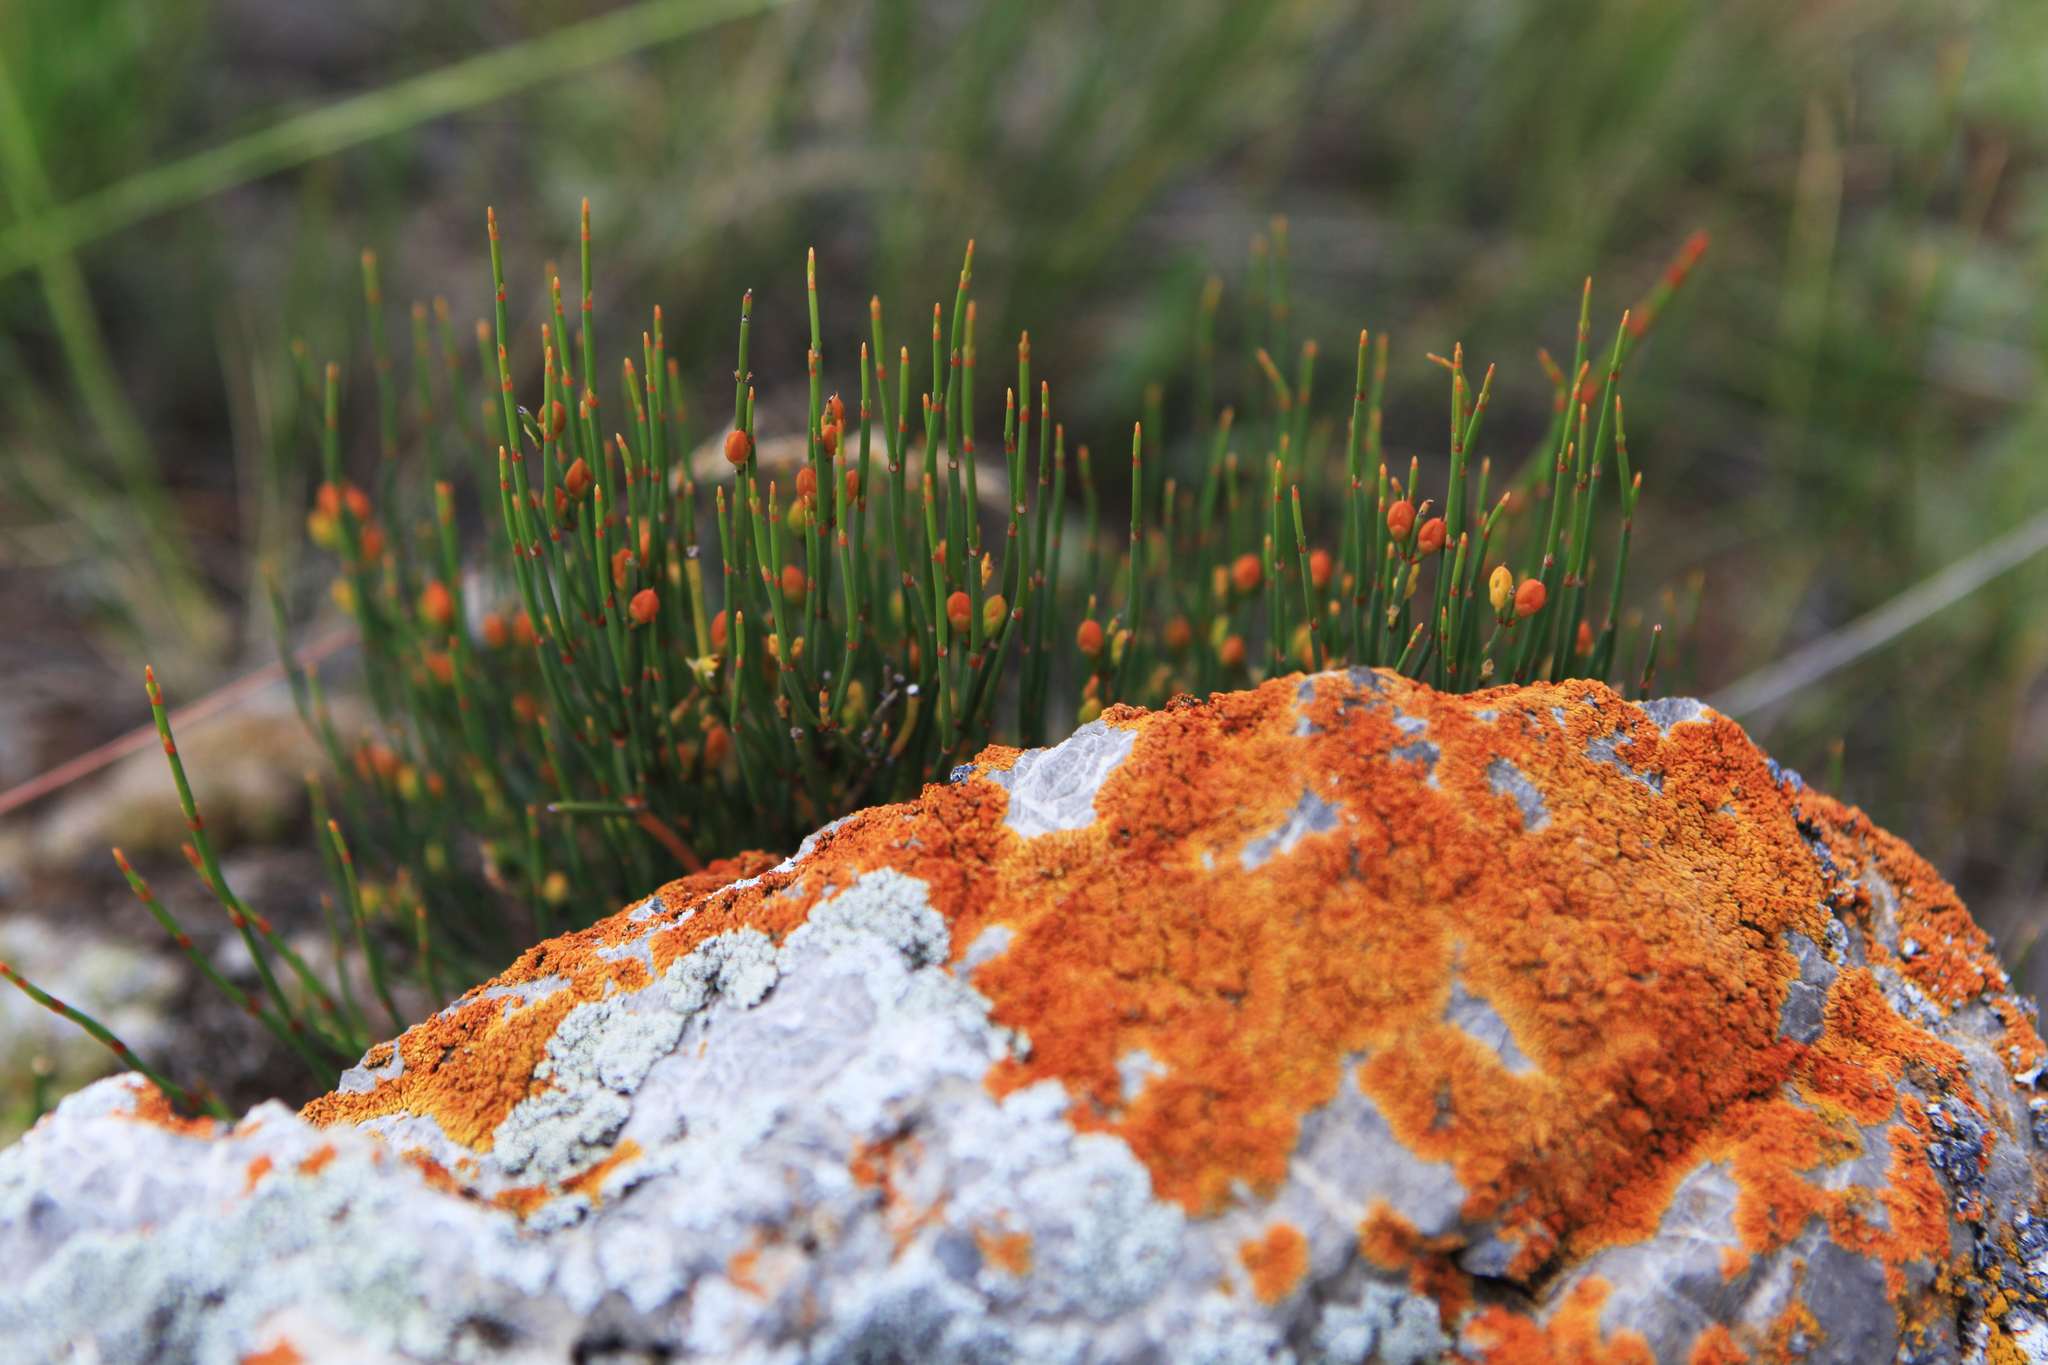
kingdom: Plantae
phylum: Tracheophyta
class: Gnetopsida
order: Ephedrales
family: Ephedraceae
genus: Ephedra
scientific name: Ephedra distachya
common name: Sea grape
